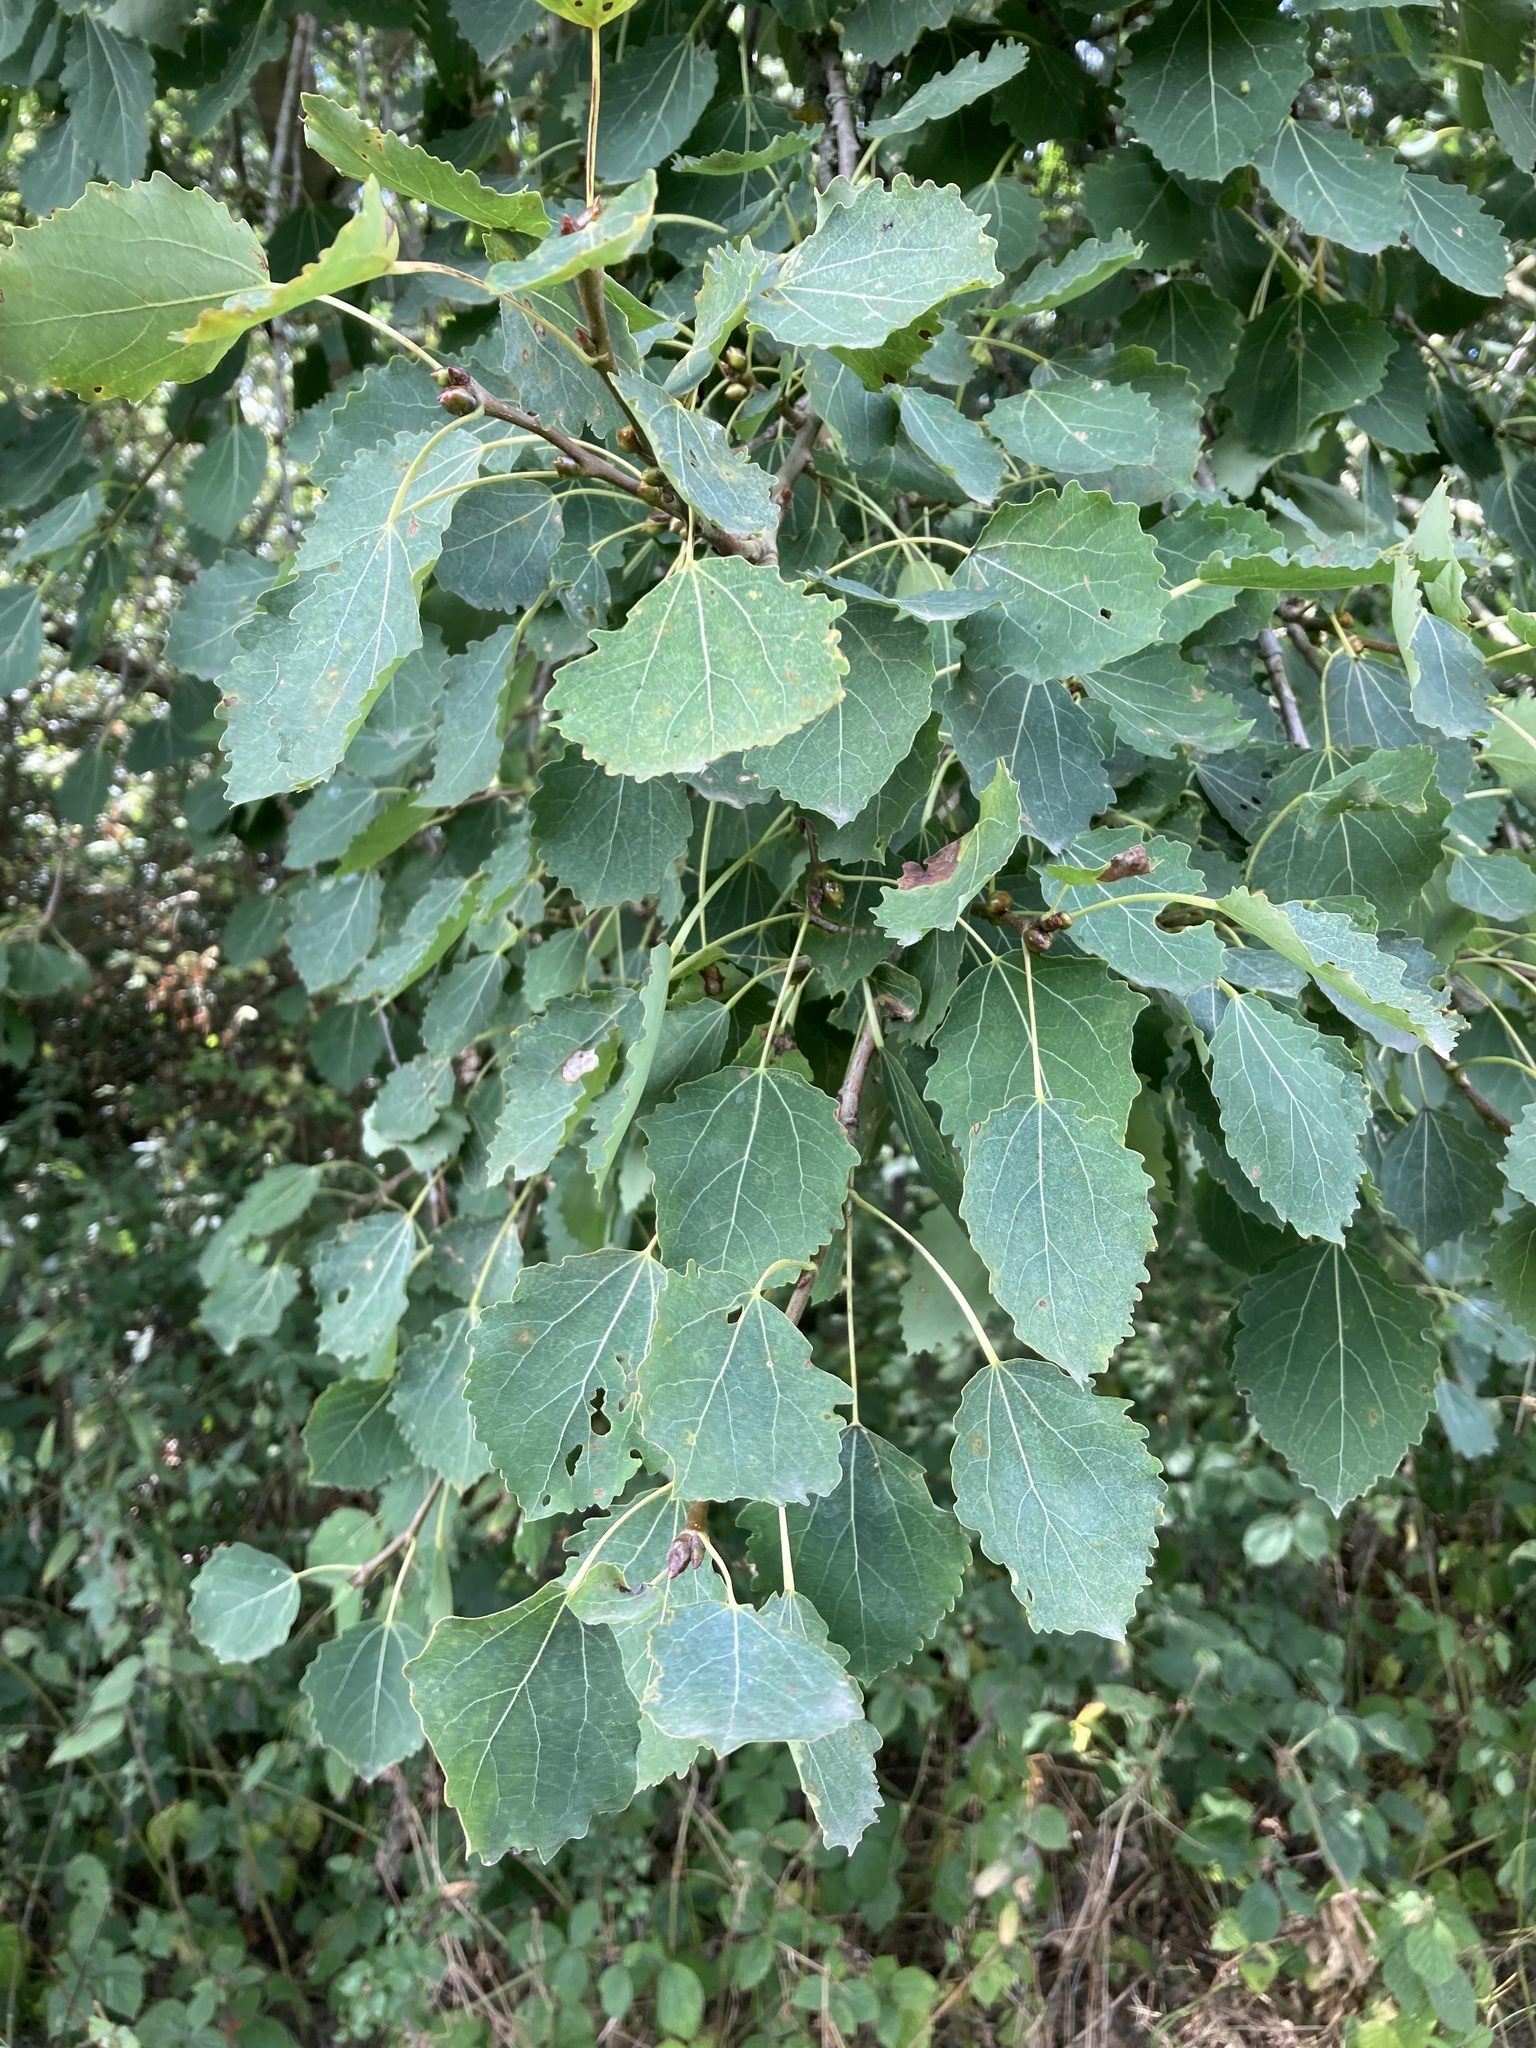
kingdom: Plantae
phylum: Tracheophyta
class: Magnoliopsida
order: Malpighiales
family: Salicaceae
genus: Populus
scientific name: Populus tremula
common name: European aspen
